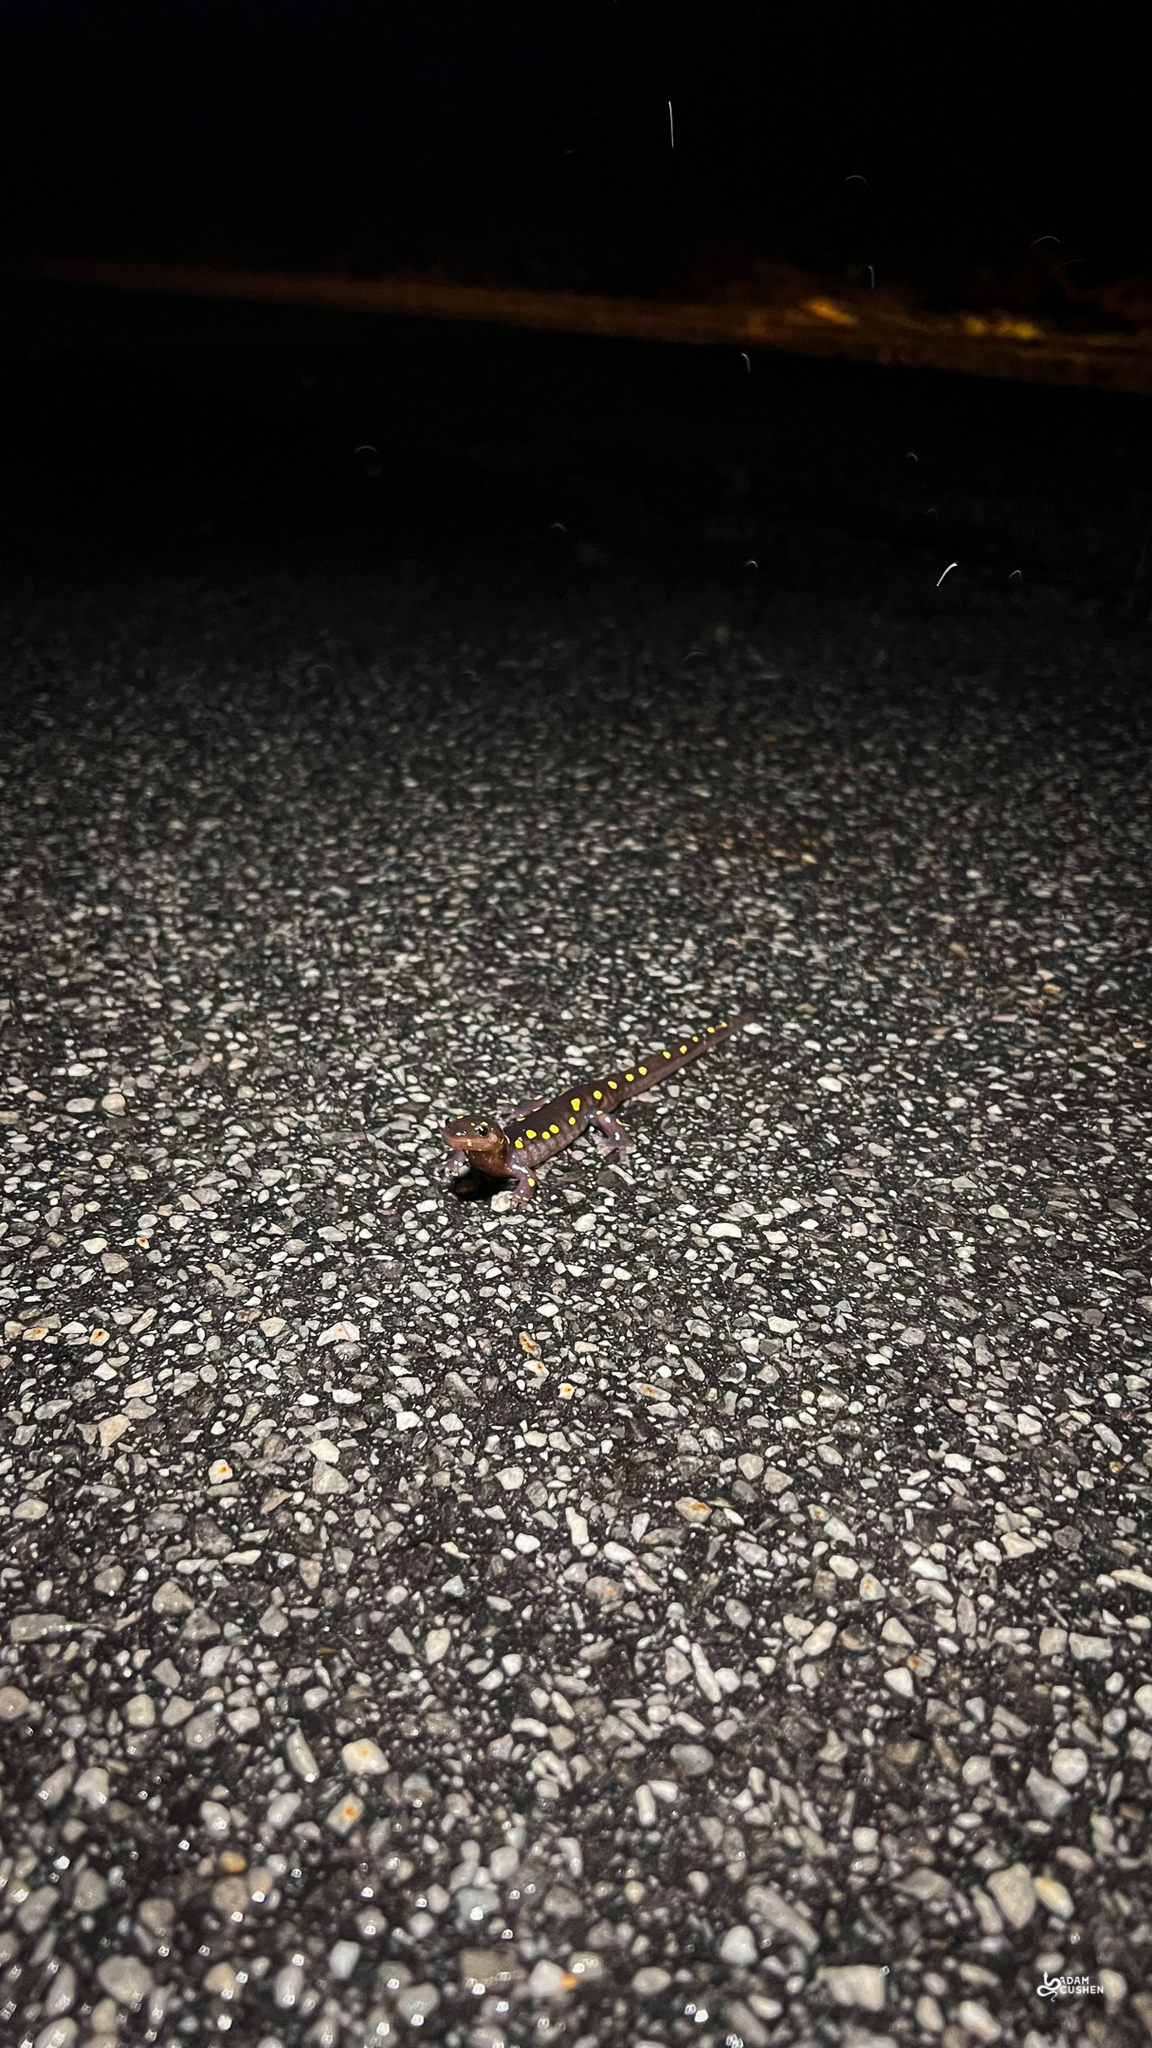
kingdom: Animalia
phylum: Chordata
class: Amphibia
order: Caudata
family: Ambystomatidae
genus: Ambystoma
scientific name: Ambystoma maculatum
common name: Spotted salamander
